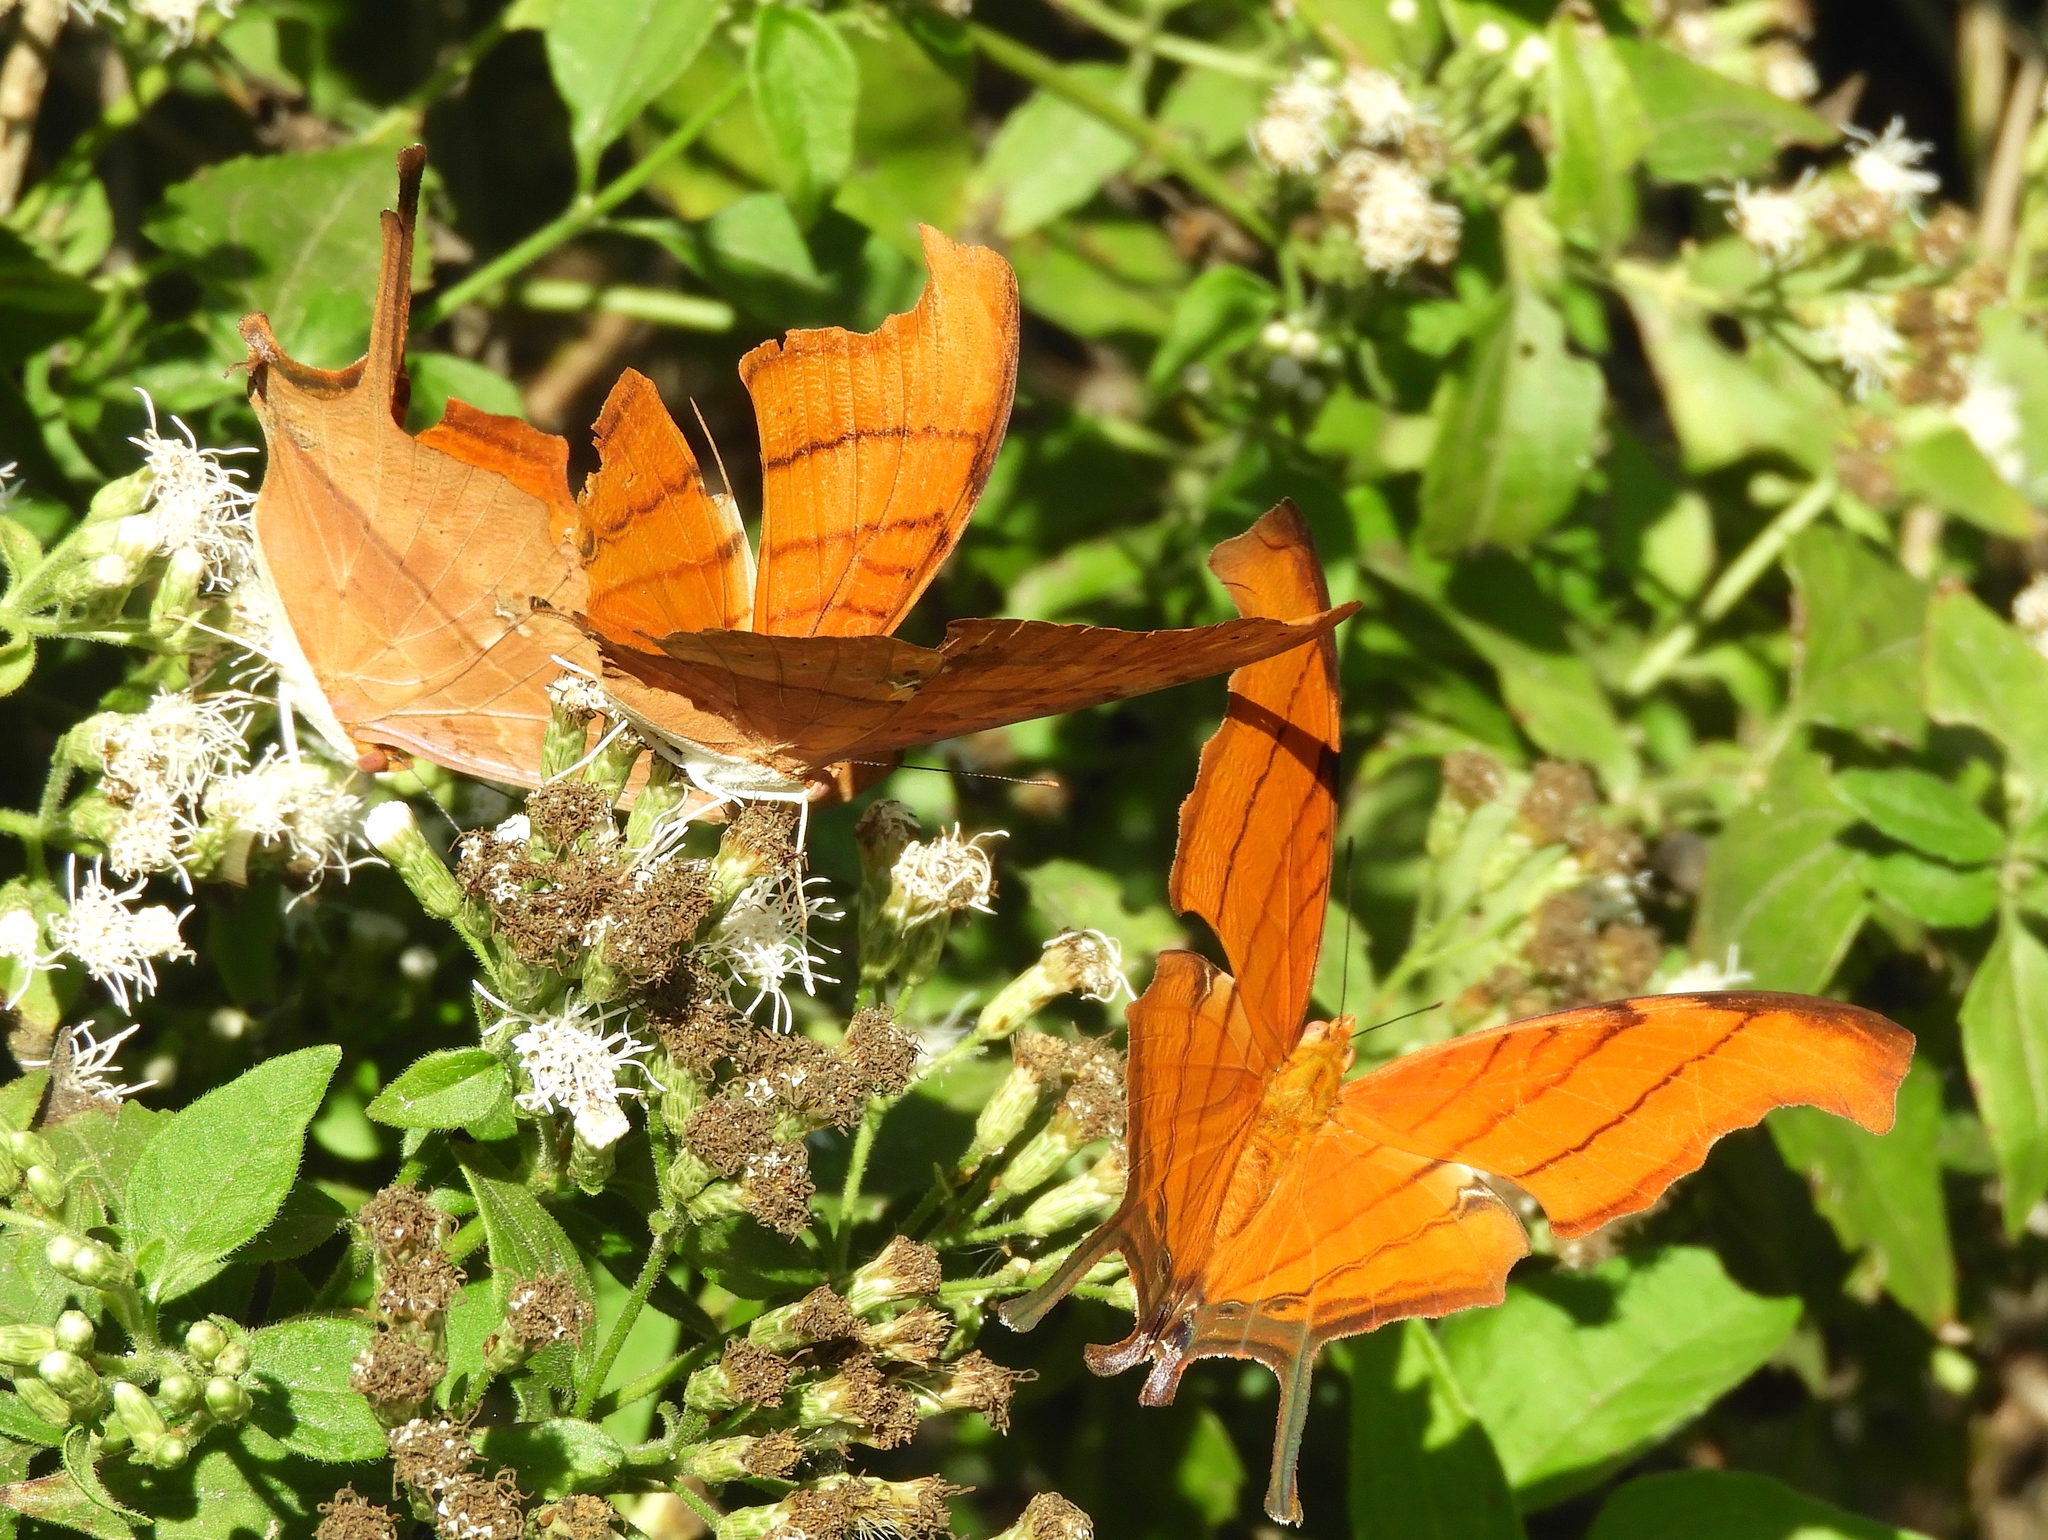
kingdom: Animalia
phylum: Arthropoda
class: Insecta
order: Lepidoptera
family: Nymphalidae
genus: Marpesia
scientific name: Marpesia petreus
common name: Red dagger wing
